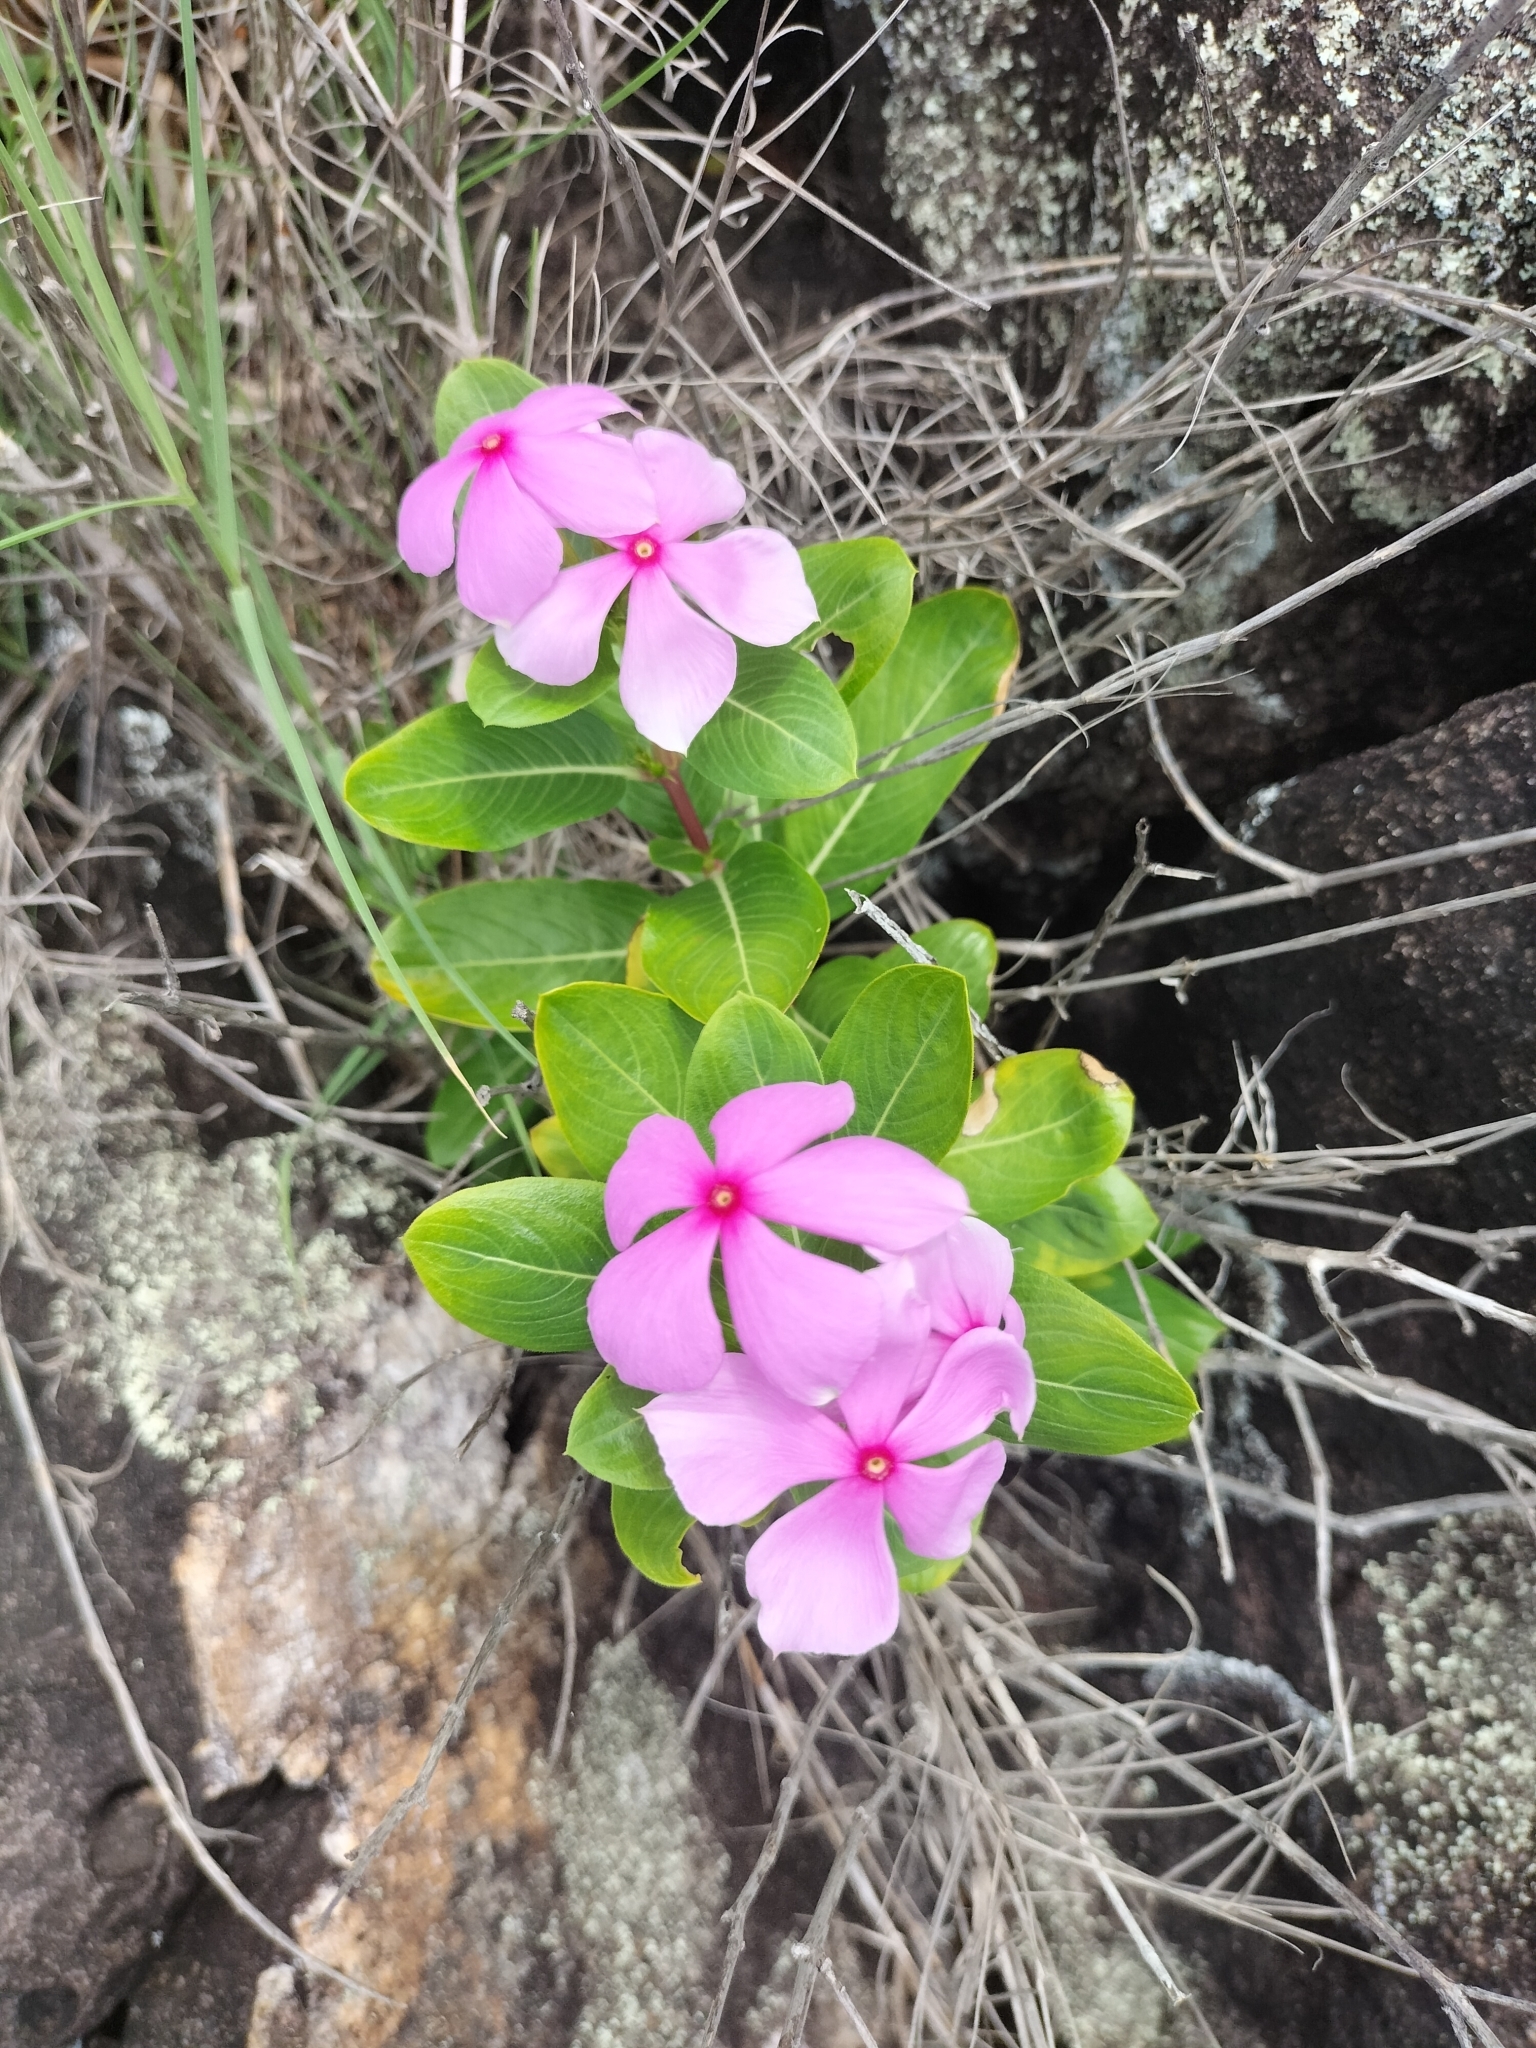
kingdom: Plantae
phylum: Tracheophyta
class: Magnoliopsida
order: Gentianales
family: Apocynaceae
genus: Catharanthus
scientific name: Catharanthus roseus
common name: Madagascar periwinkle
